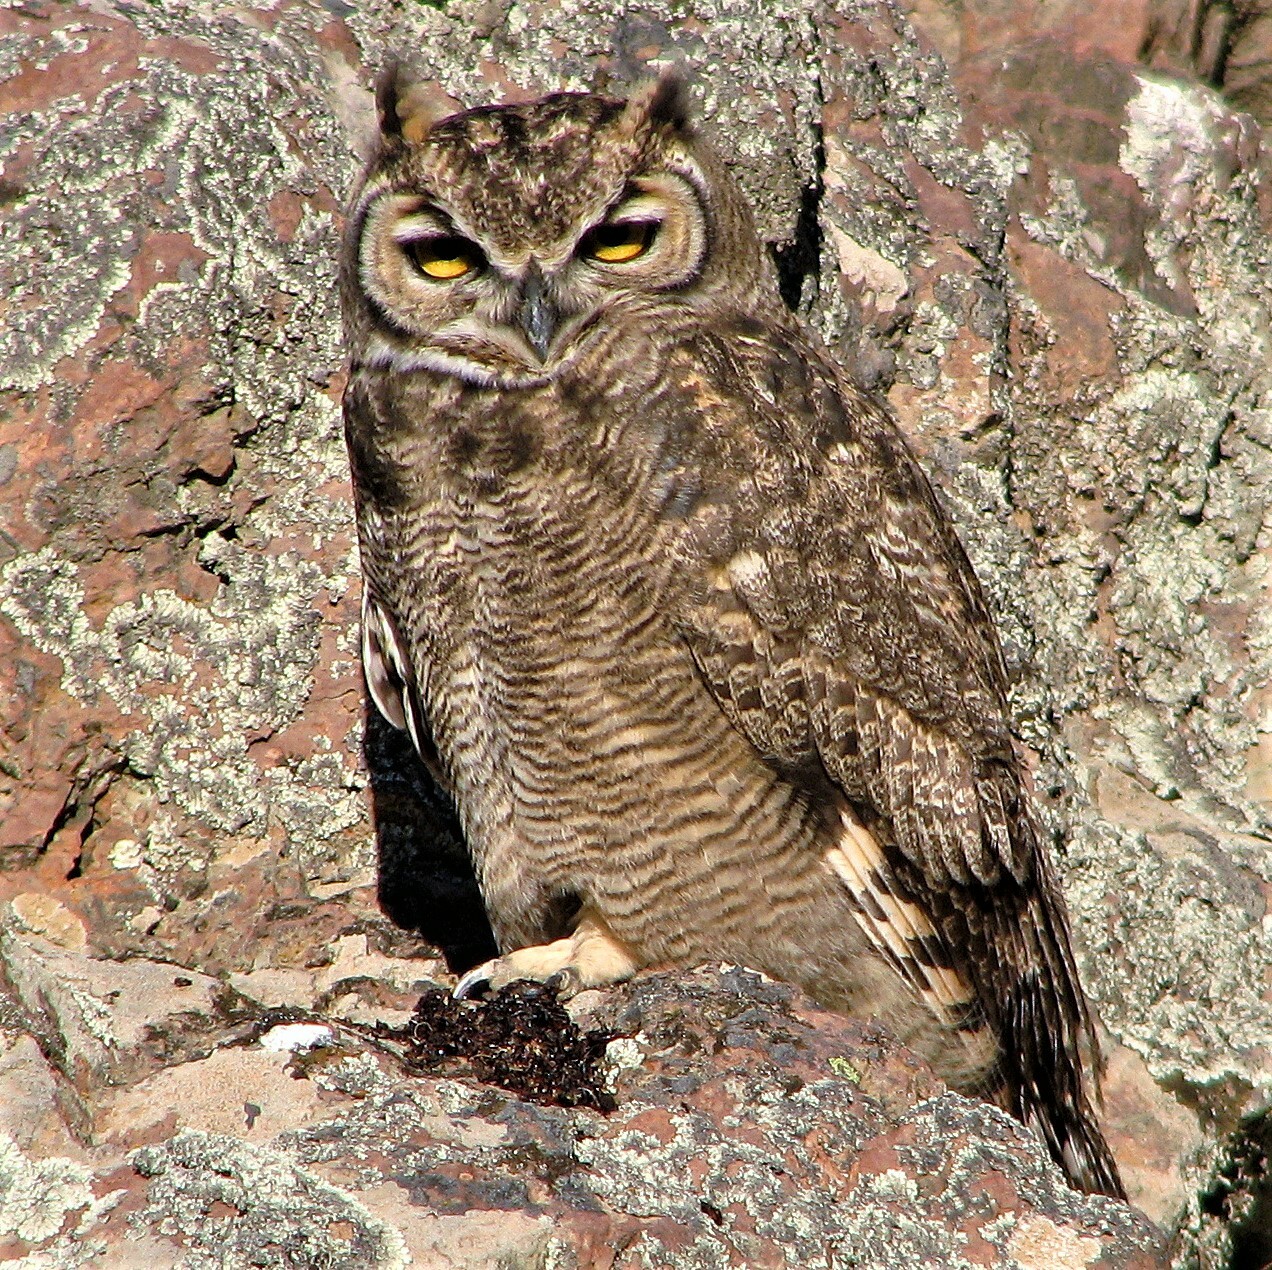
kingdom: Animalia
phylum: Chordata
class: Aves
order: Strigiformes
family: Strigidae
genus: Bubo
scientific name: Bubo magellanicus
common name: Lesser horned owl
